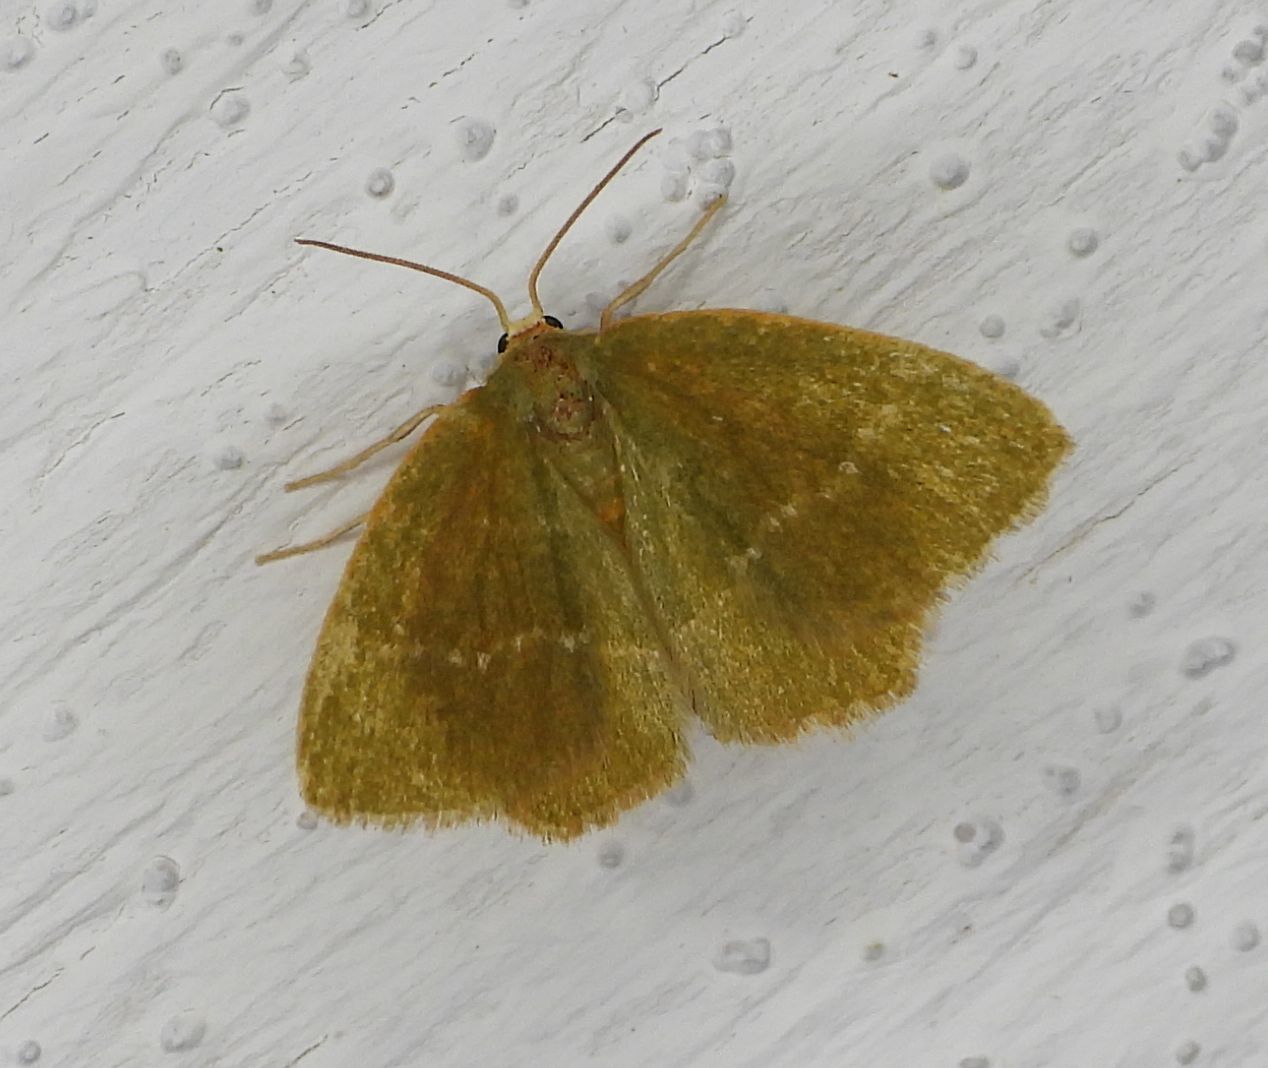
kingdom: Animalia
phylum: Arthropoda
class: Insecta
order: Lepidoptera
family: Geometridae
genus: Thalera
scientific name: Thalera pistasciaria
